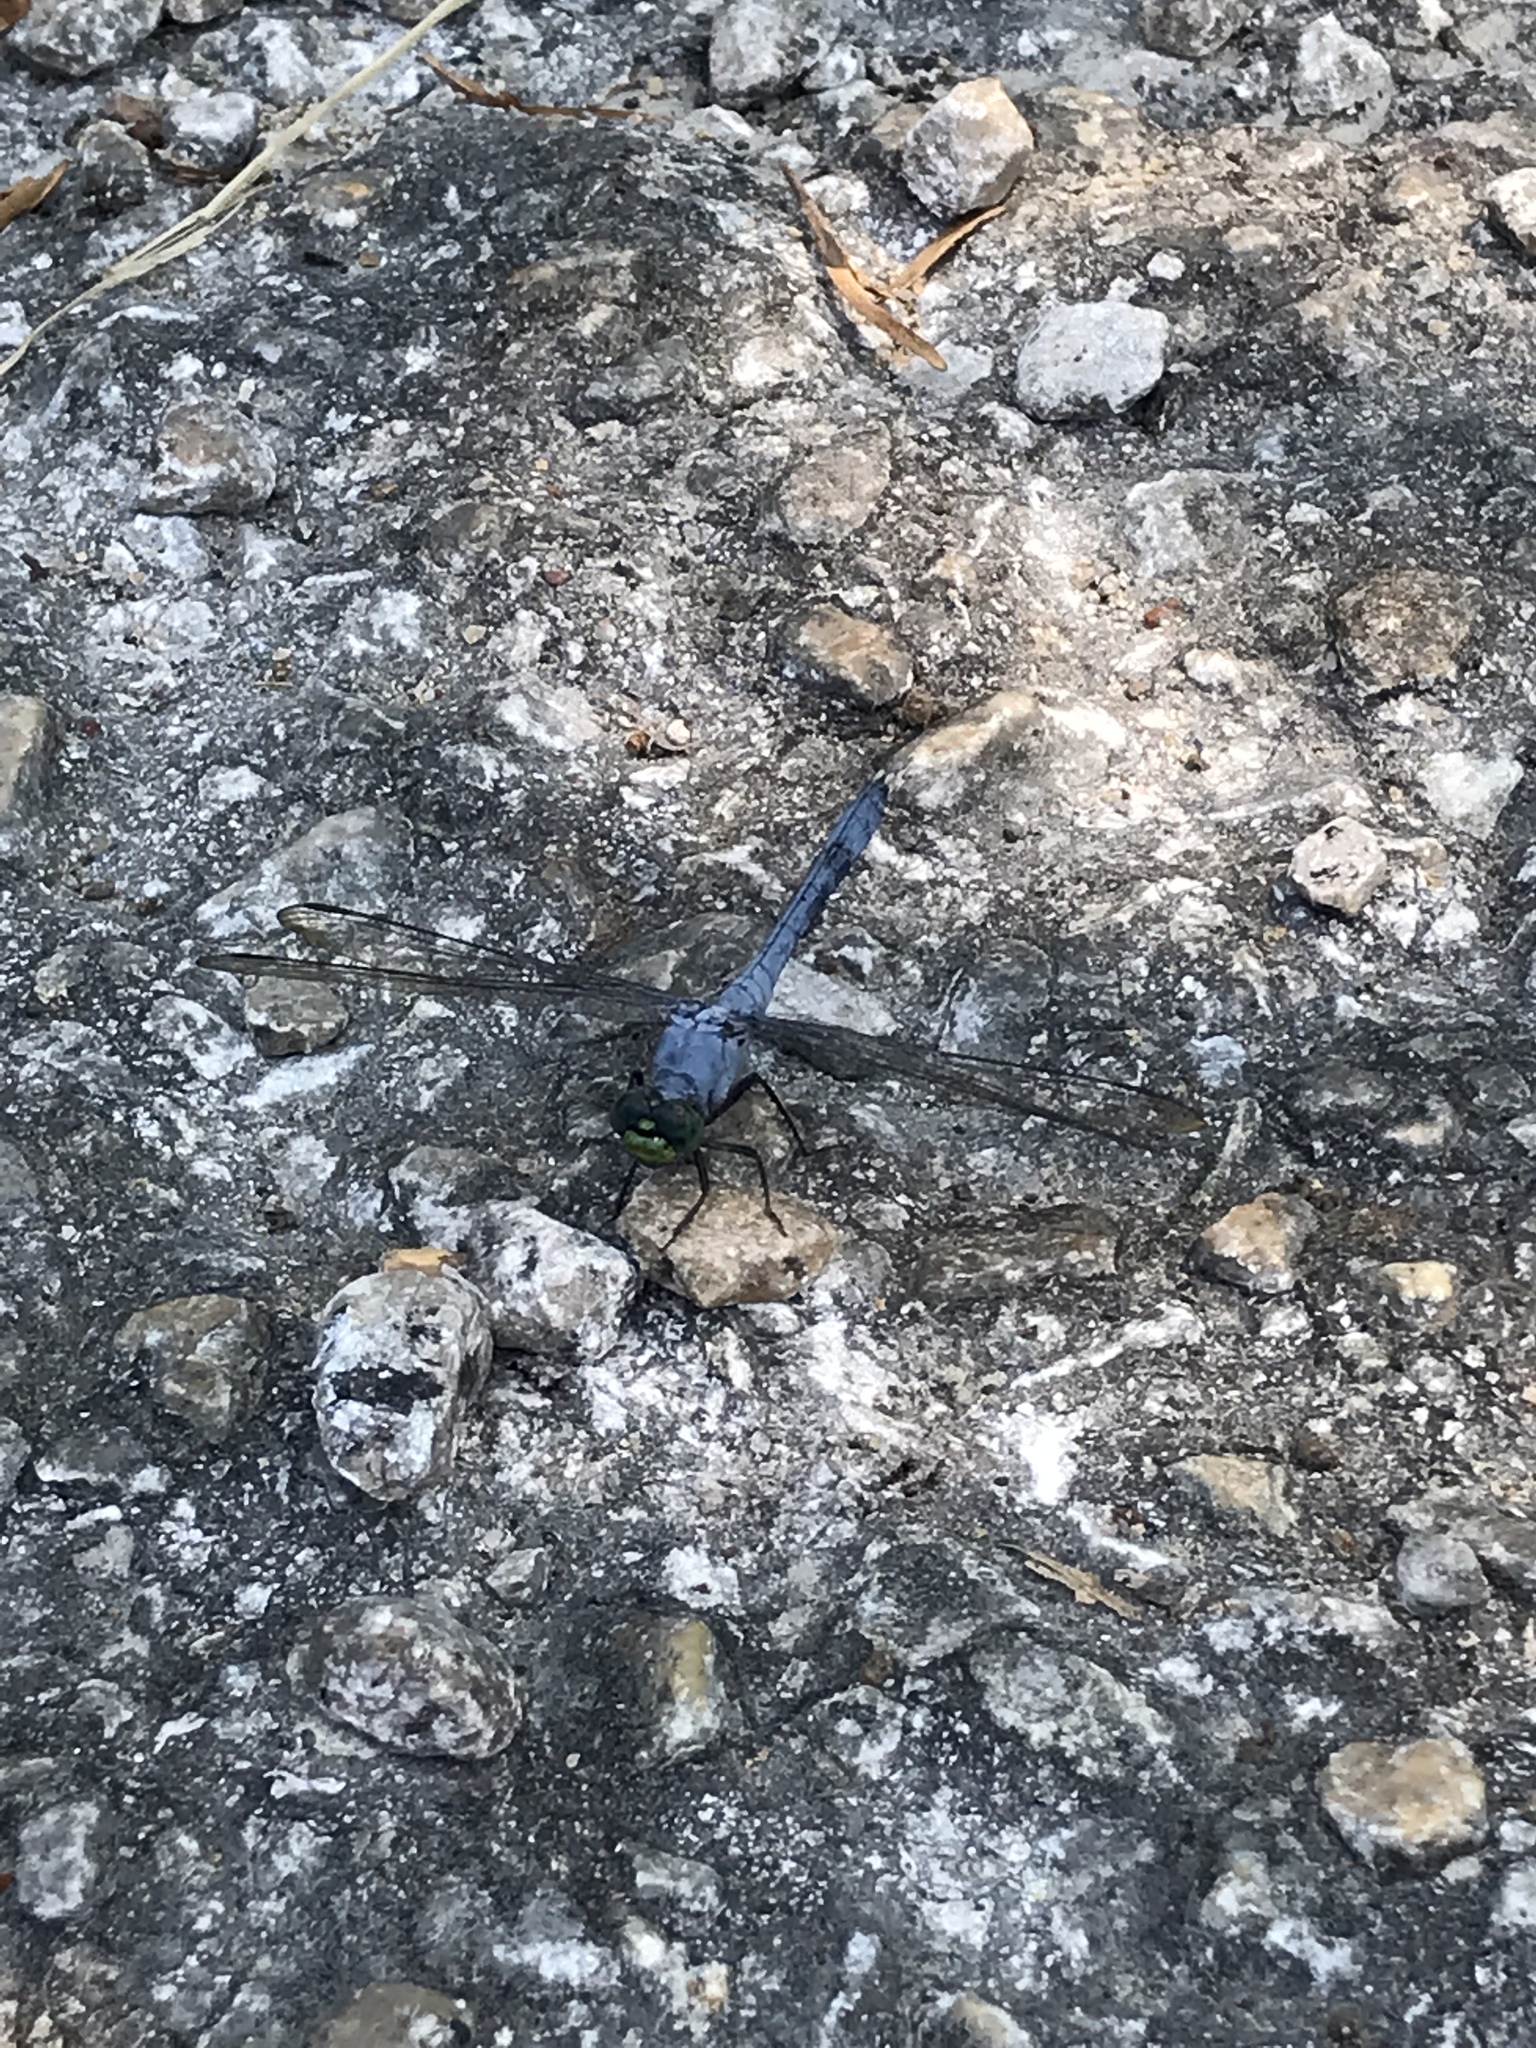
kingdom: Animalia
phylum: Arthropoda
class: Insecta
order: Odonata
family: Libellulidae
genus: Erythemis
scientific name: Erythemis simplicicollis
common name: Eastern pondhawk
